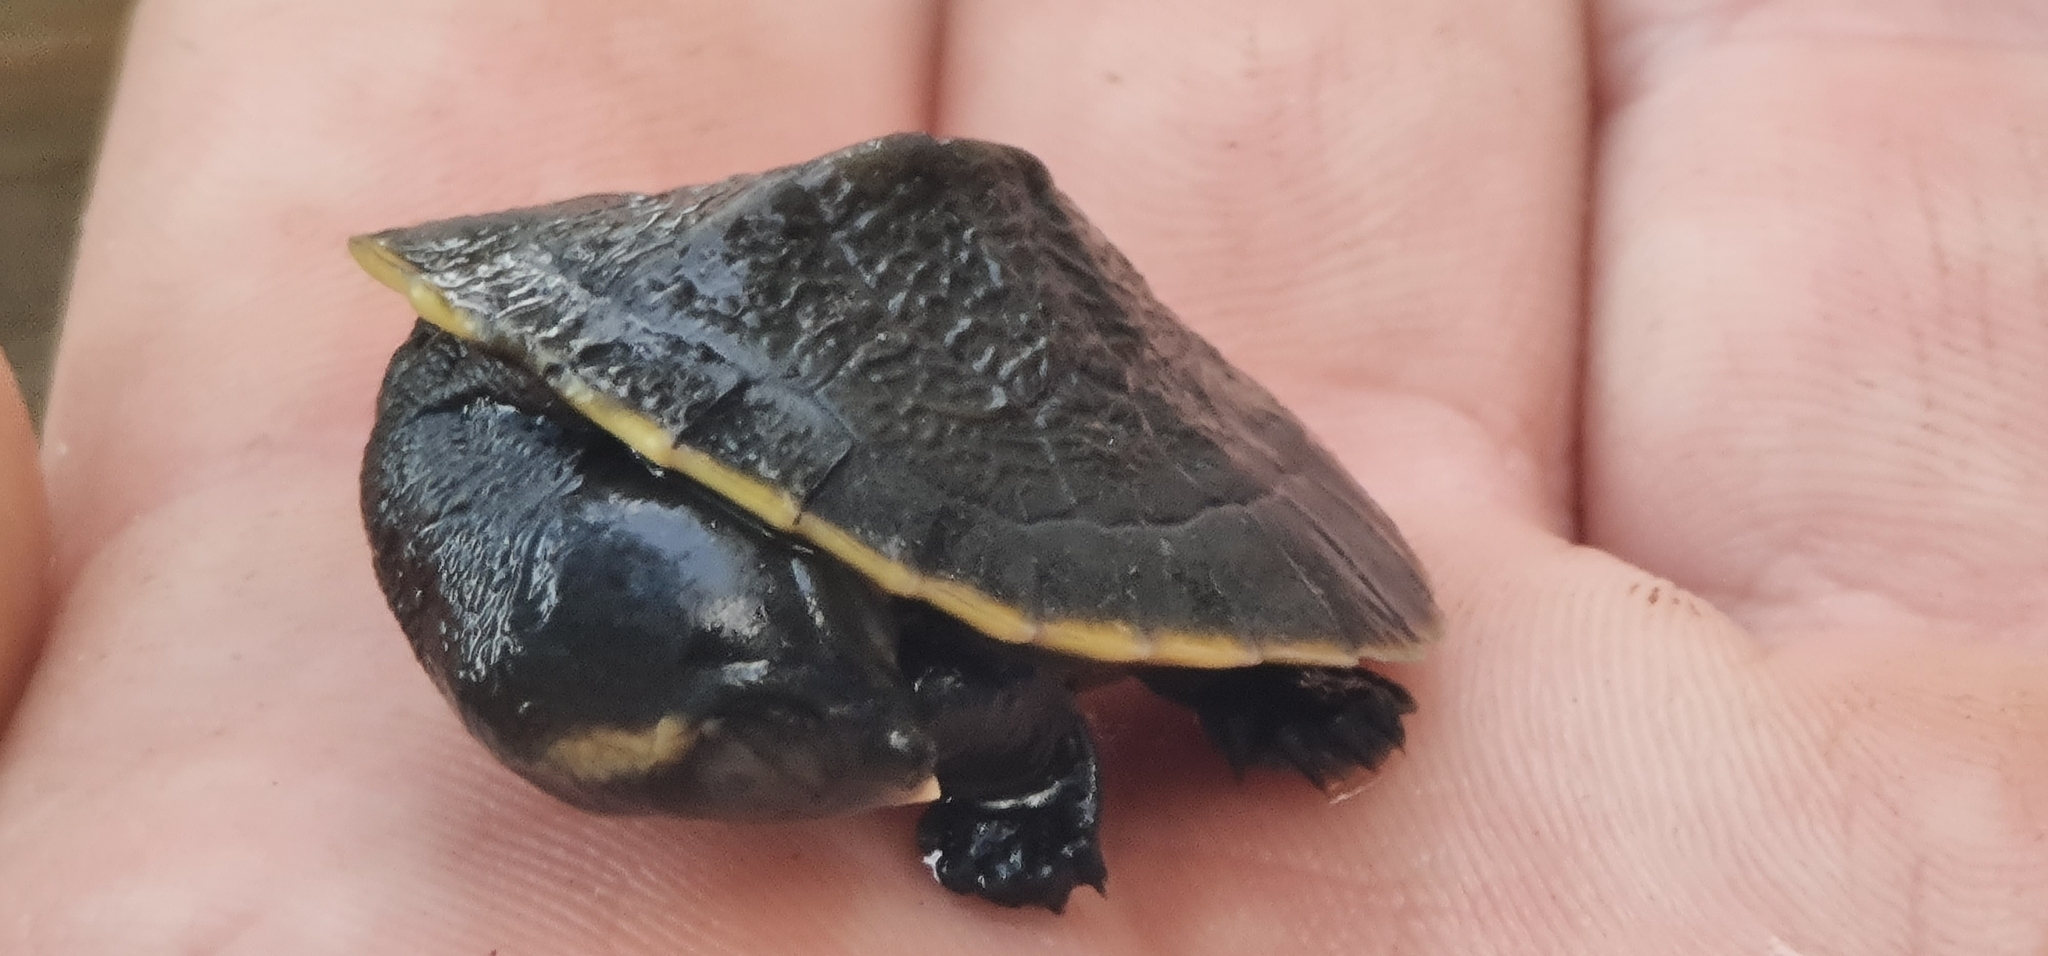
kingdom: Animalia
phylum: Chordata
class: Testudines
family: Chelidae
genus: Emydura
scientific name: Emydura macquarii
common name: Murray river turtle
